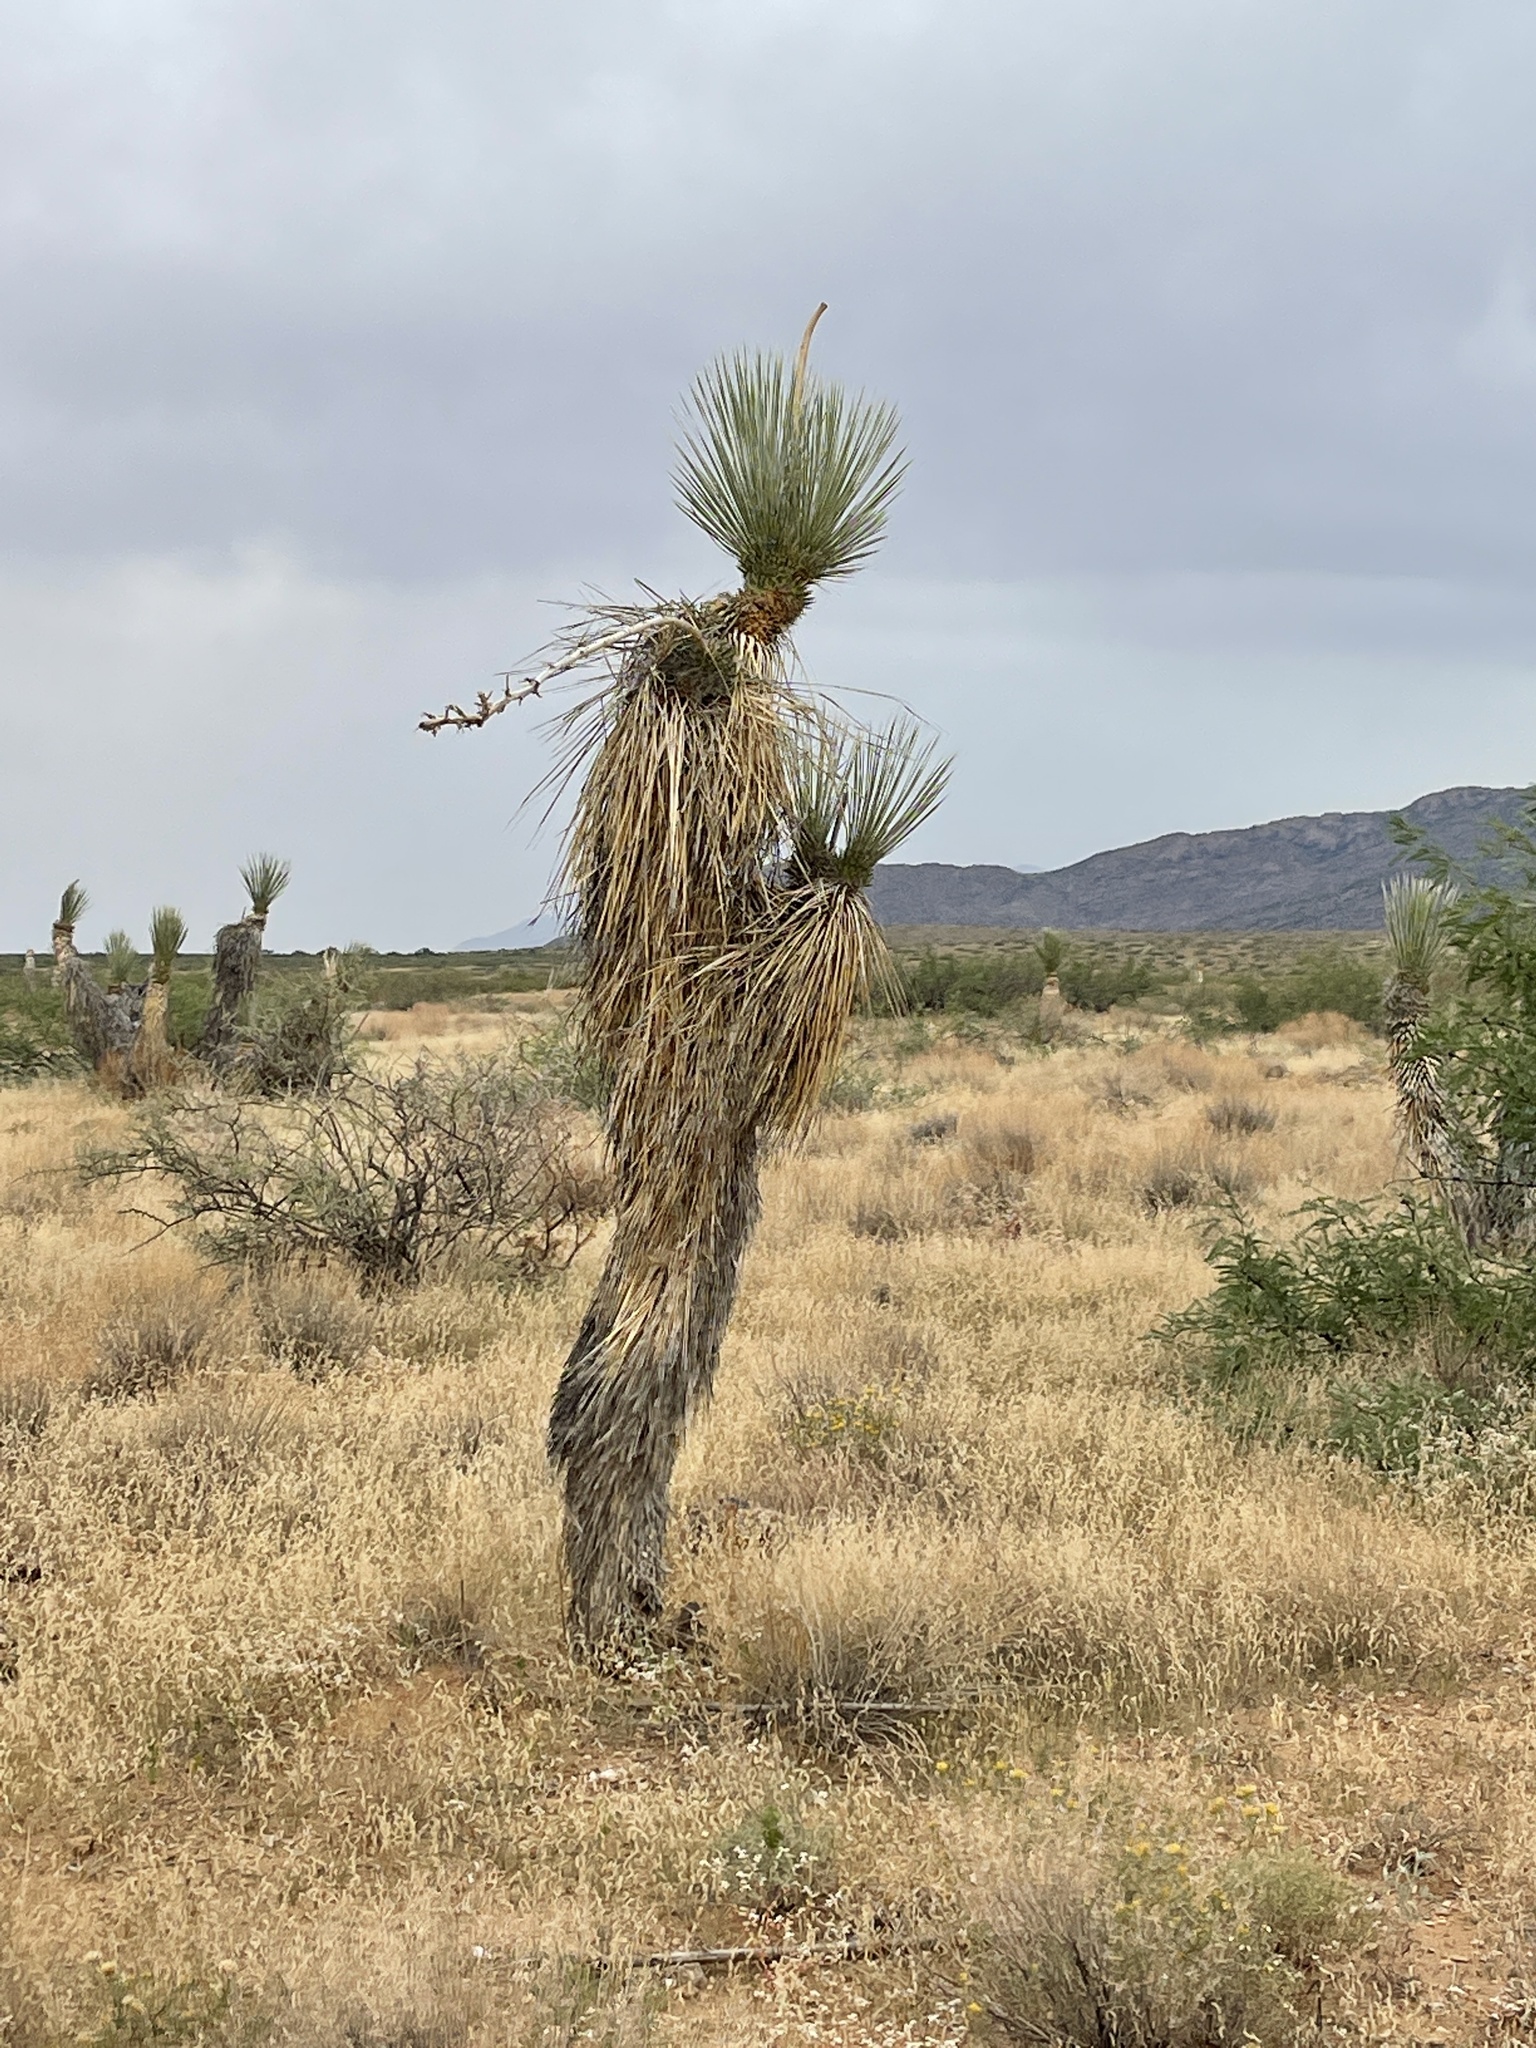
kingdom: Plantae
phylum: Tracheophyta
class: Liliopsida
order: Asparagales
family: Asparagaceae
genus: Yucca
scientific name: Yucca elata
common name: Palmella
